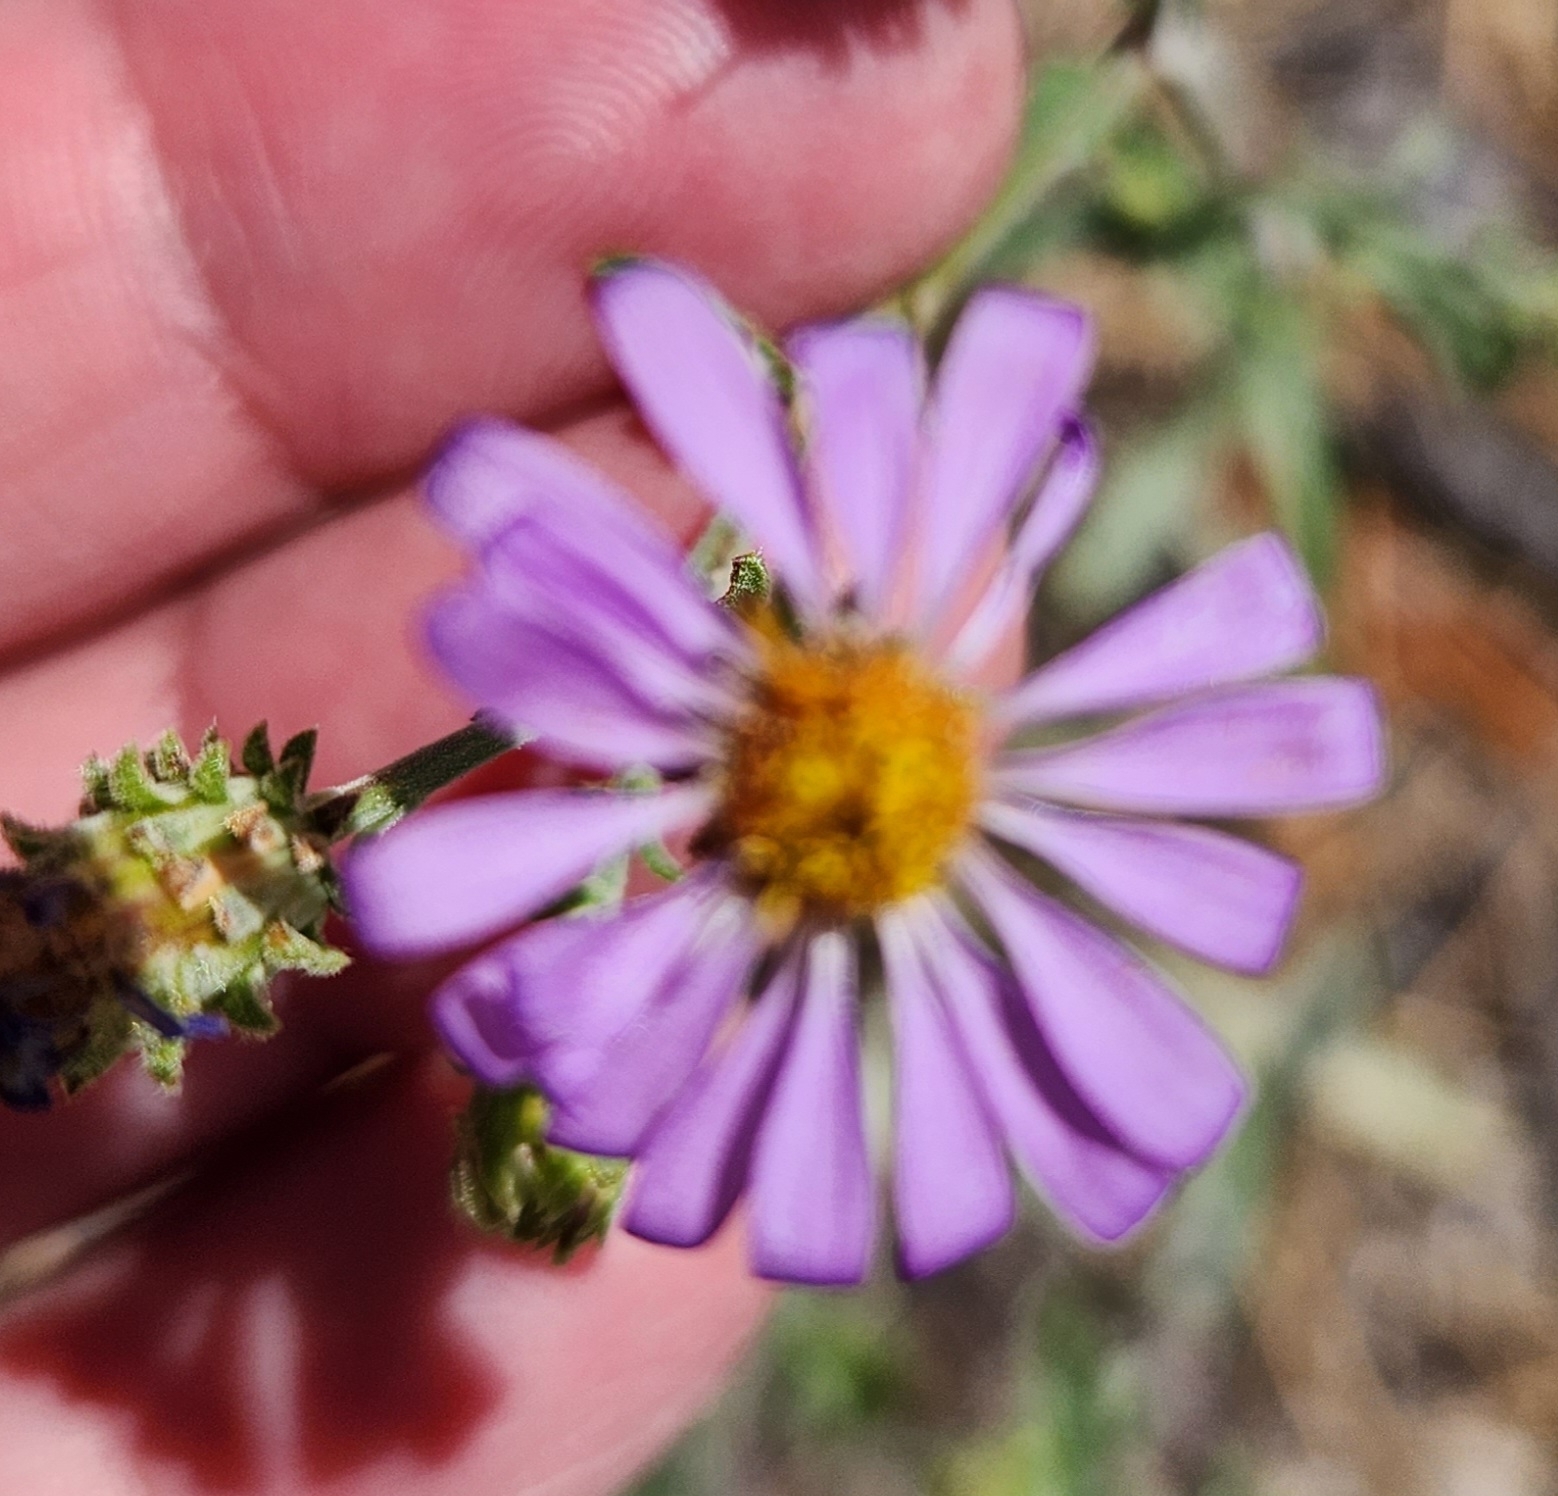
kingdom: Plantae
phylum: Tracheophyta
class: Magnoliopsida
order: Asterales
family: Asteraceae
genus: Dieteria
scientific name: Dieteria canescens
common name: Hoary-aster
